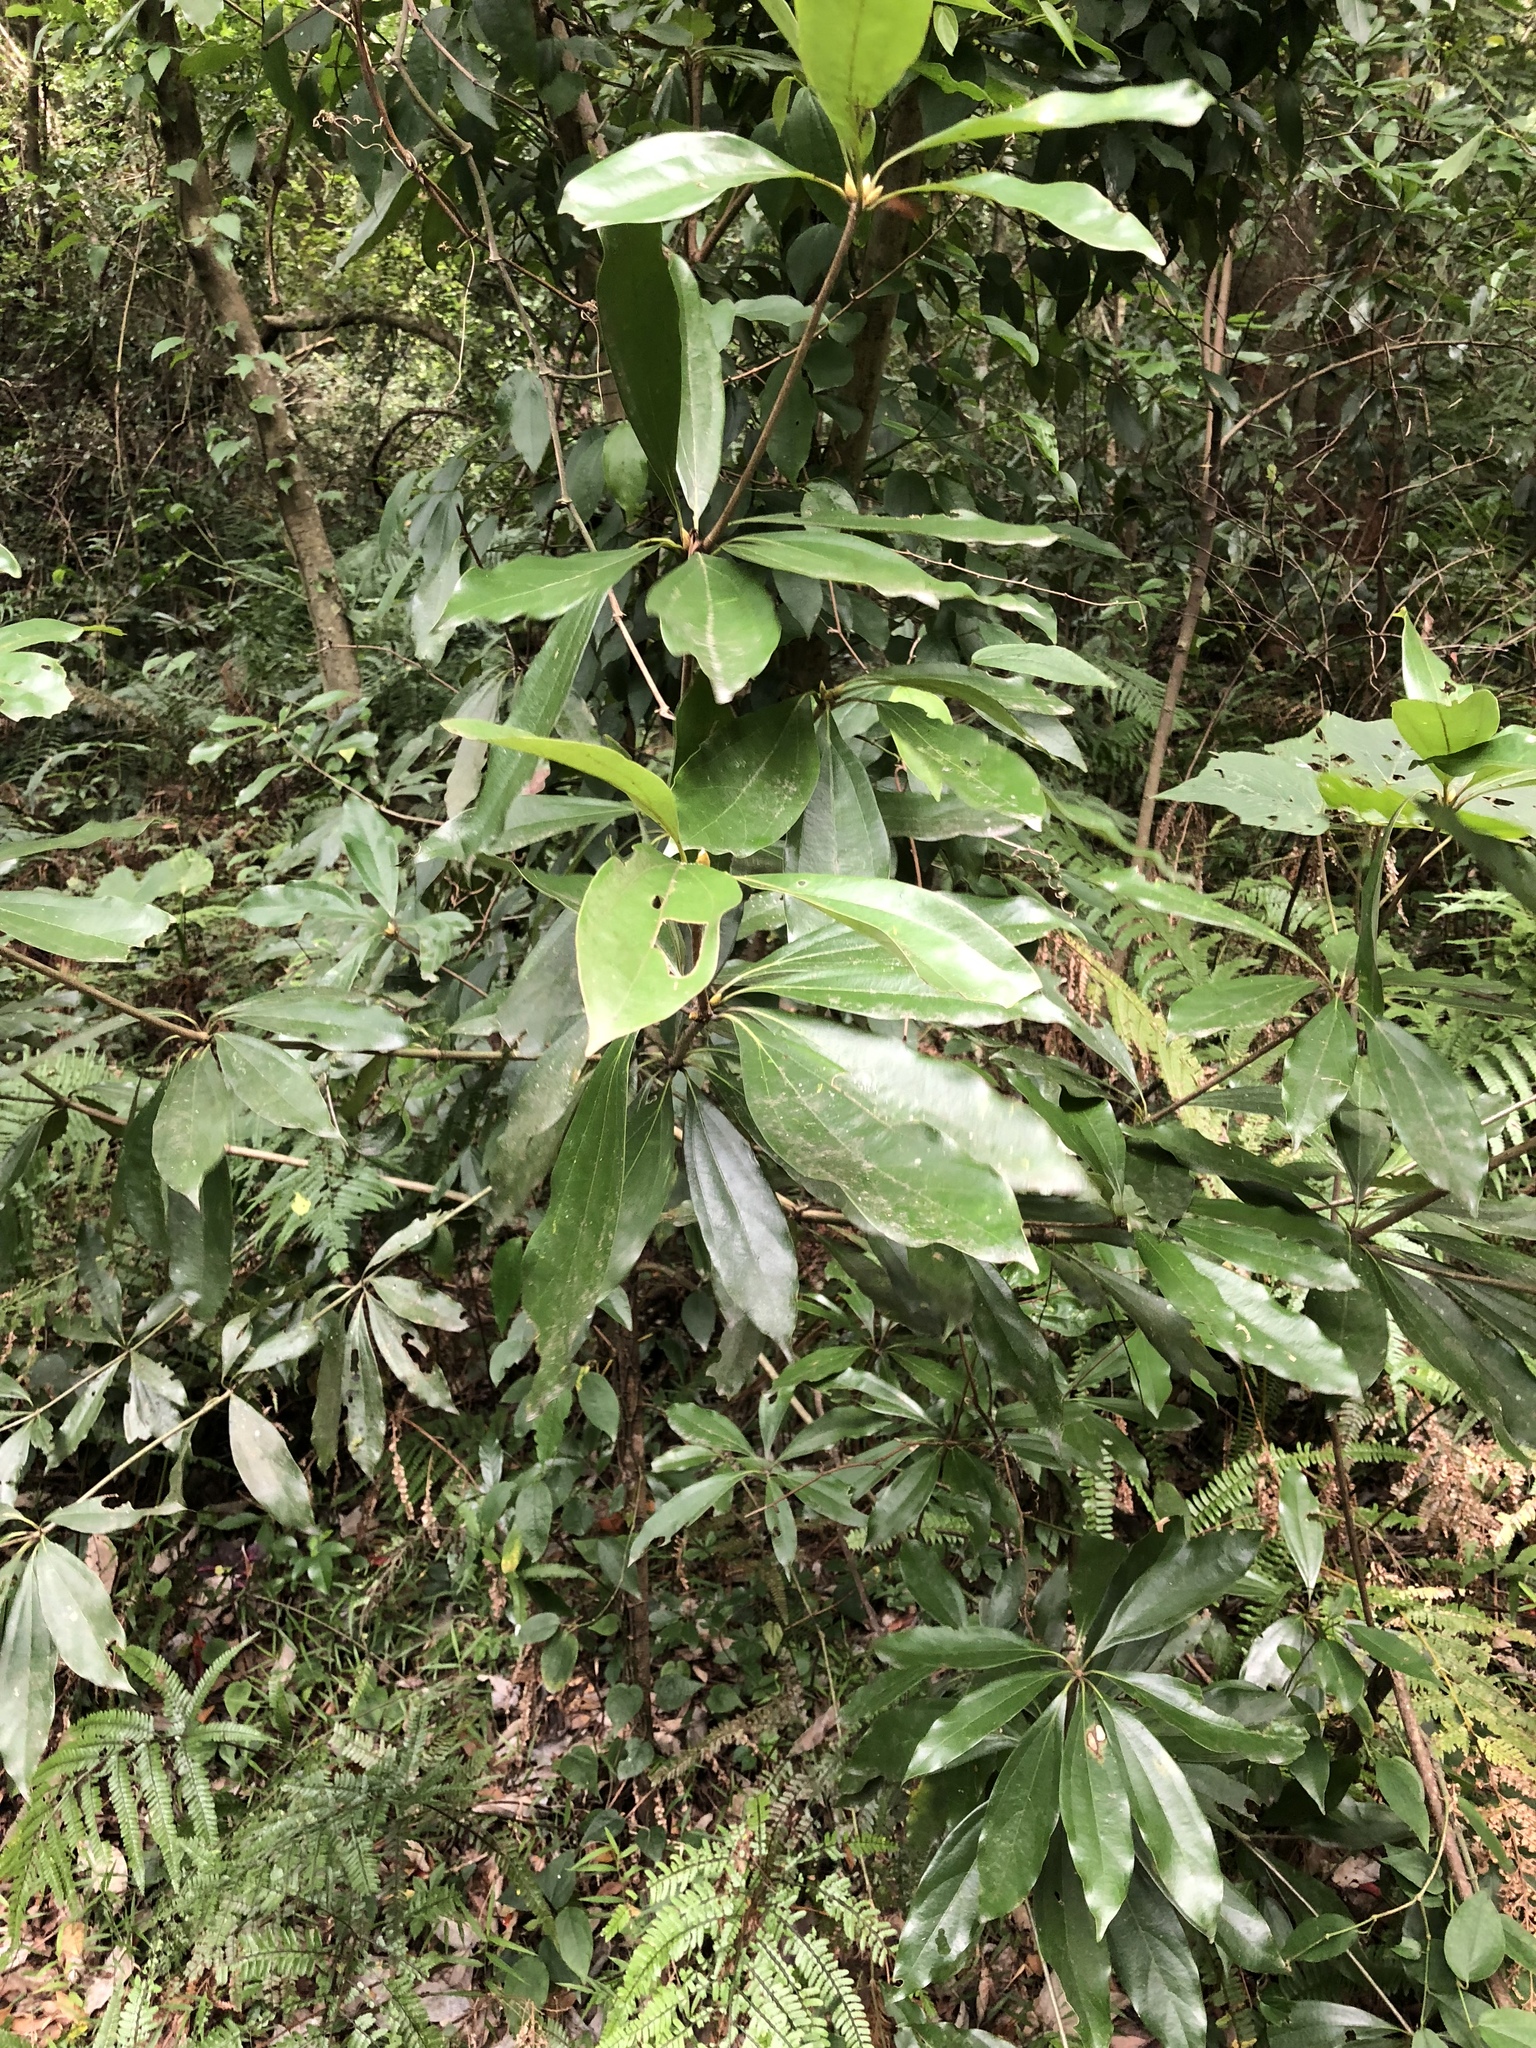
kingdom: Plantae
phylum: Tracheophyta
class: Magnoliopsida
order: Laurales
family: Lauraceae
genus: Neolitsea
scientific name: Neolitsea konishii
